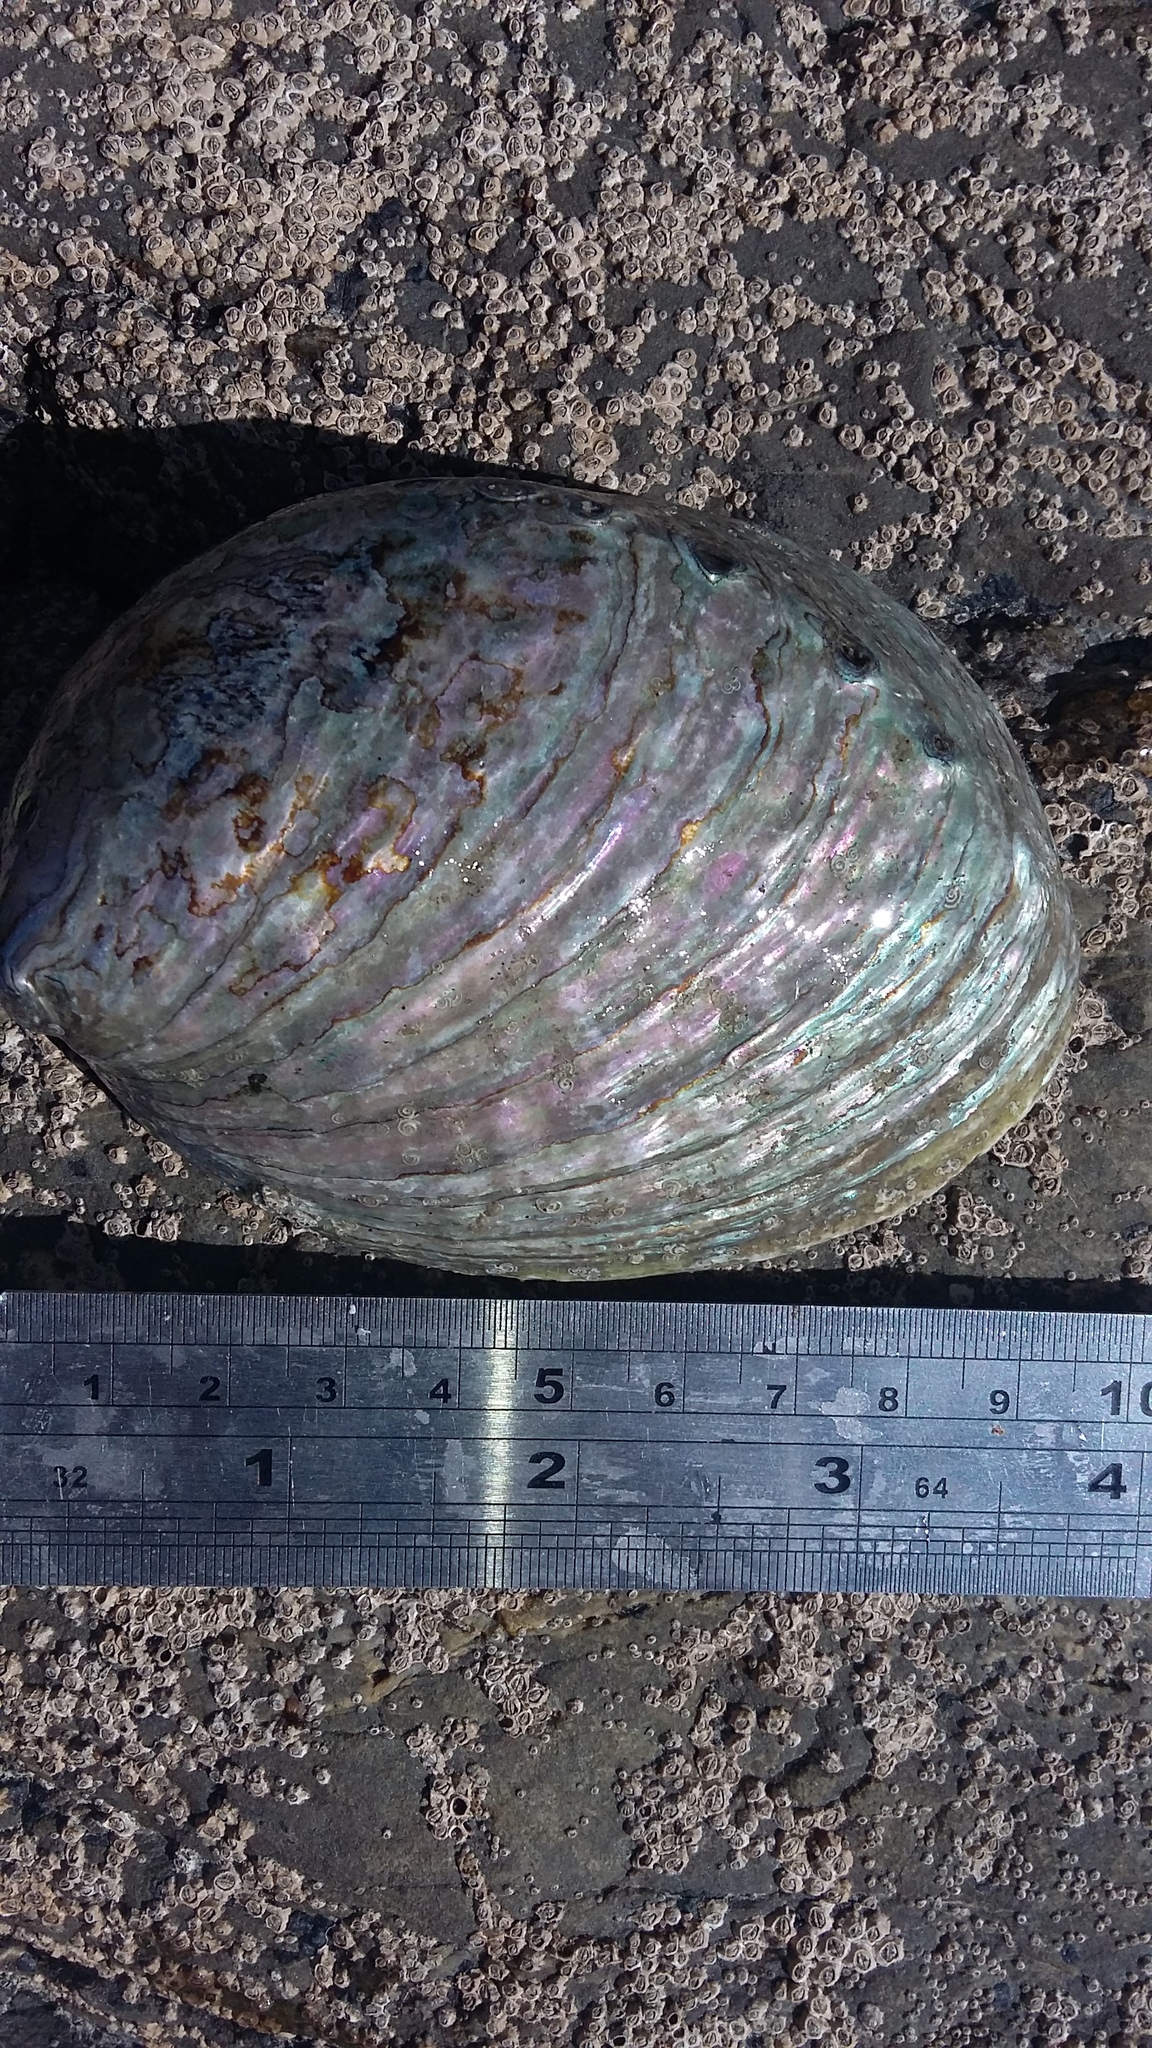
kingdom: Animalia
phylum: Mollusca
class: Gastropoda
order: Lepetellida
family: Haliotidae
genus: Haliotis
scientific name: Haliotis iris
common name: Abalone
